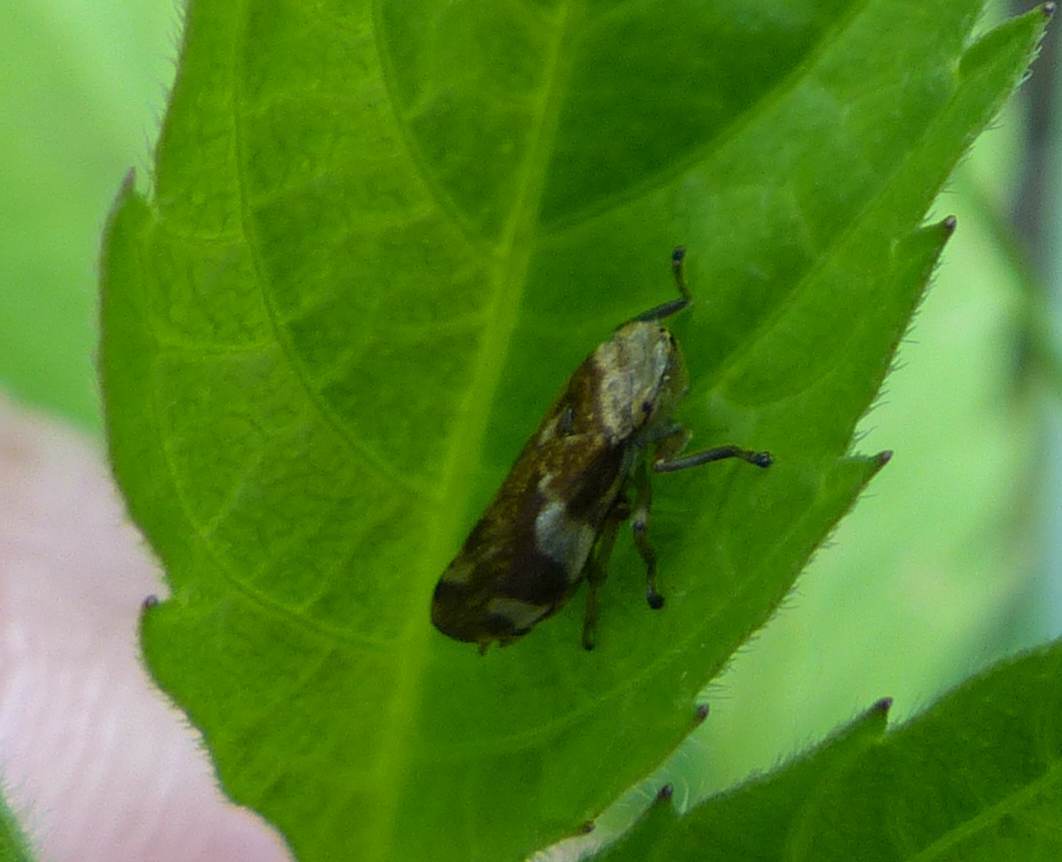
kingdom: Animalia
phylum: Arthropoda
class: Insecta
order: Hemiptera
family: Aphrophoridae
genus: Philaenus
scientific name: Philaenus spumarius
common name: Meadow spittlebug
